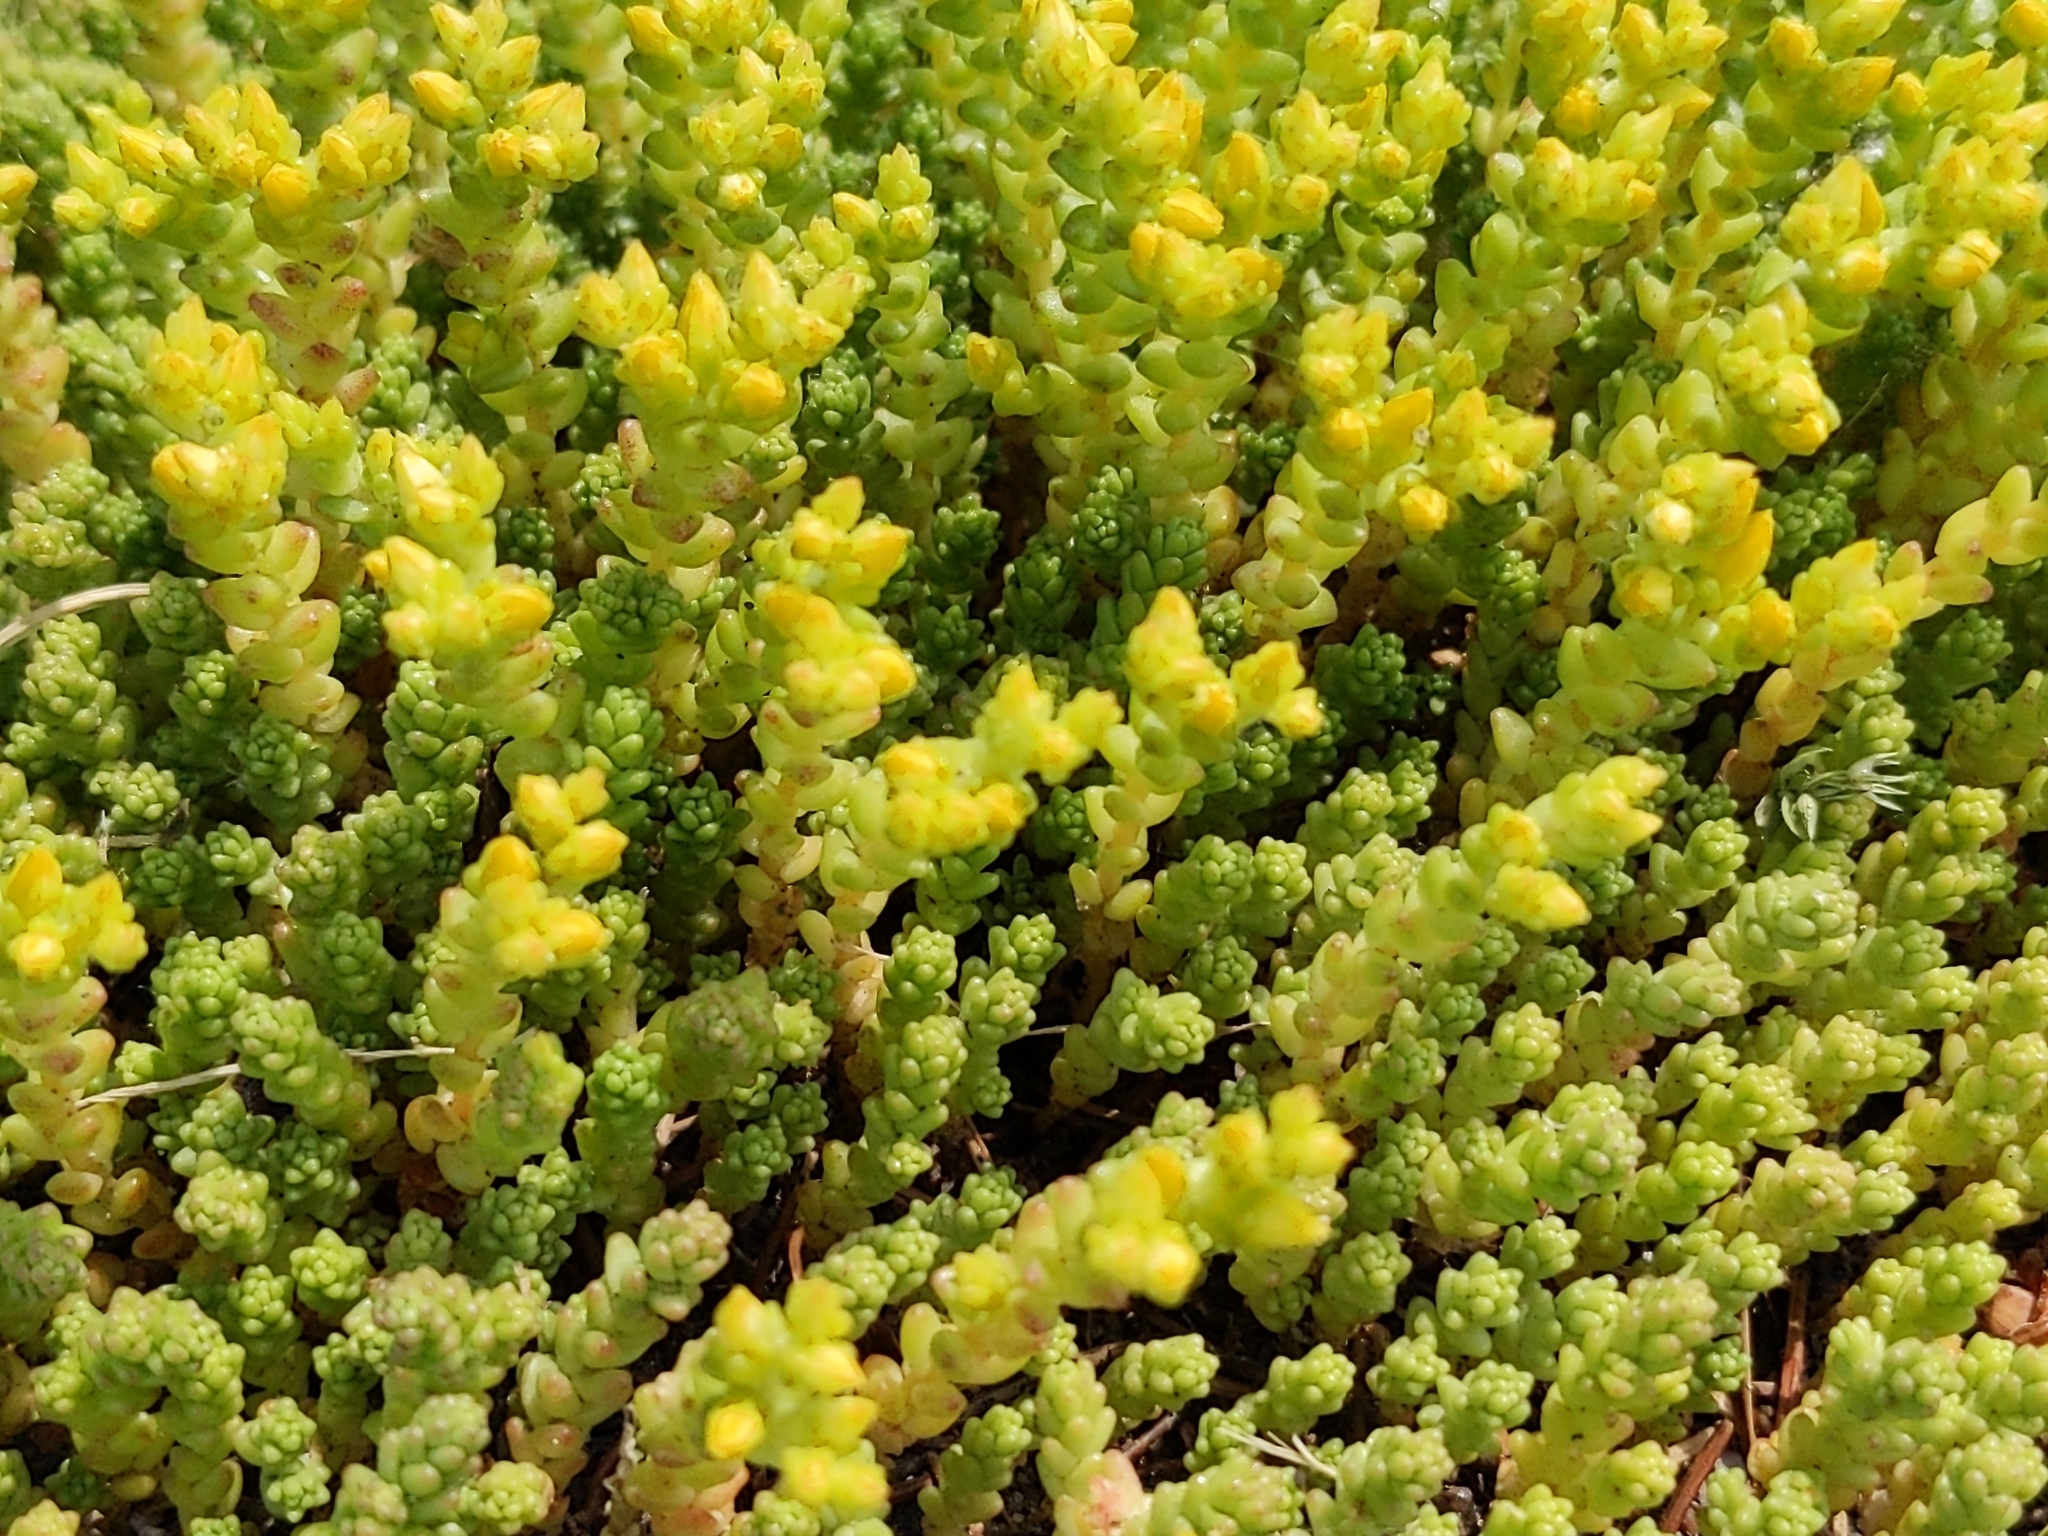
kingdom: Plantae
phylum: Tracheophyta
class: Magnoliopsida
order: Saxifragales
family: Crassulaceae
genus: Sedum
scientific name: Sedum acre
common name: Biting stonecrop
